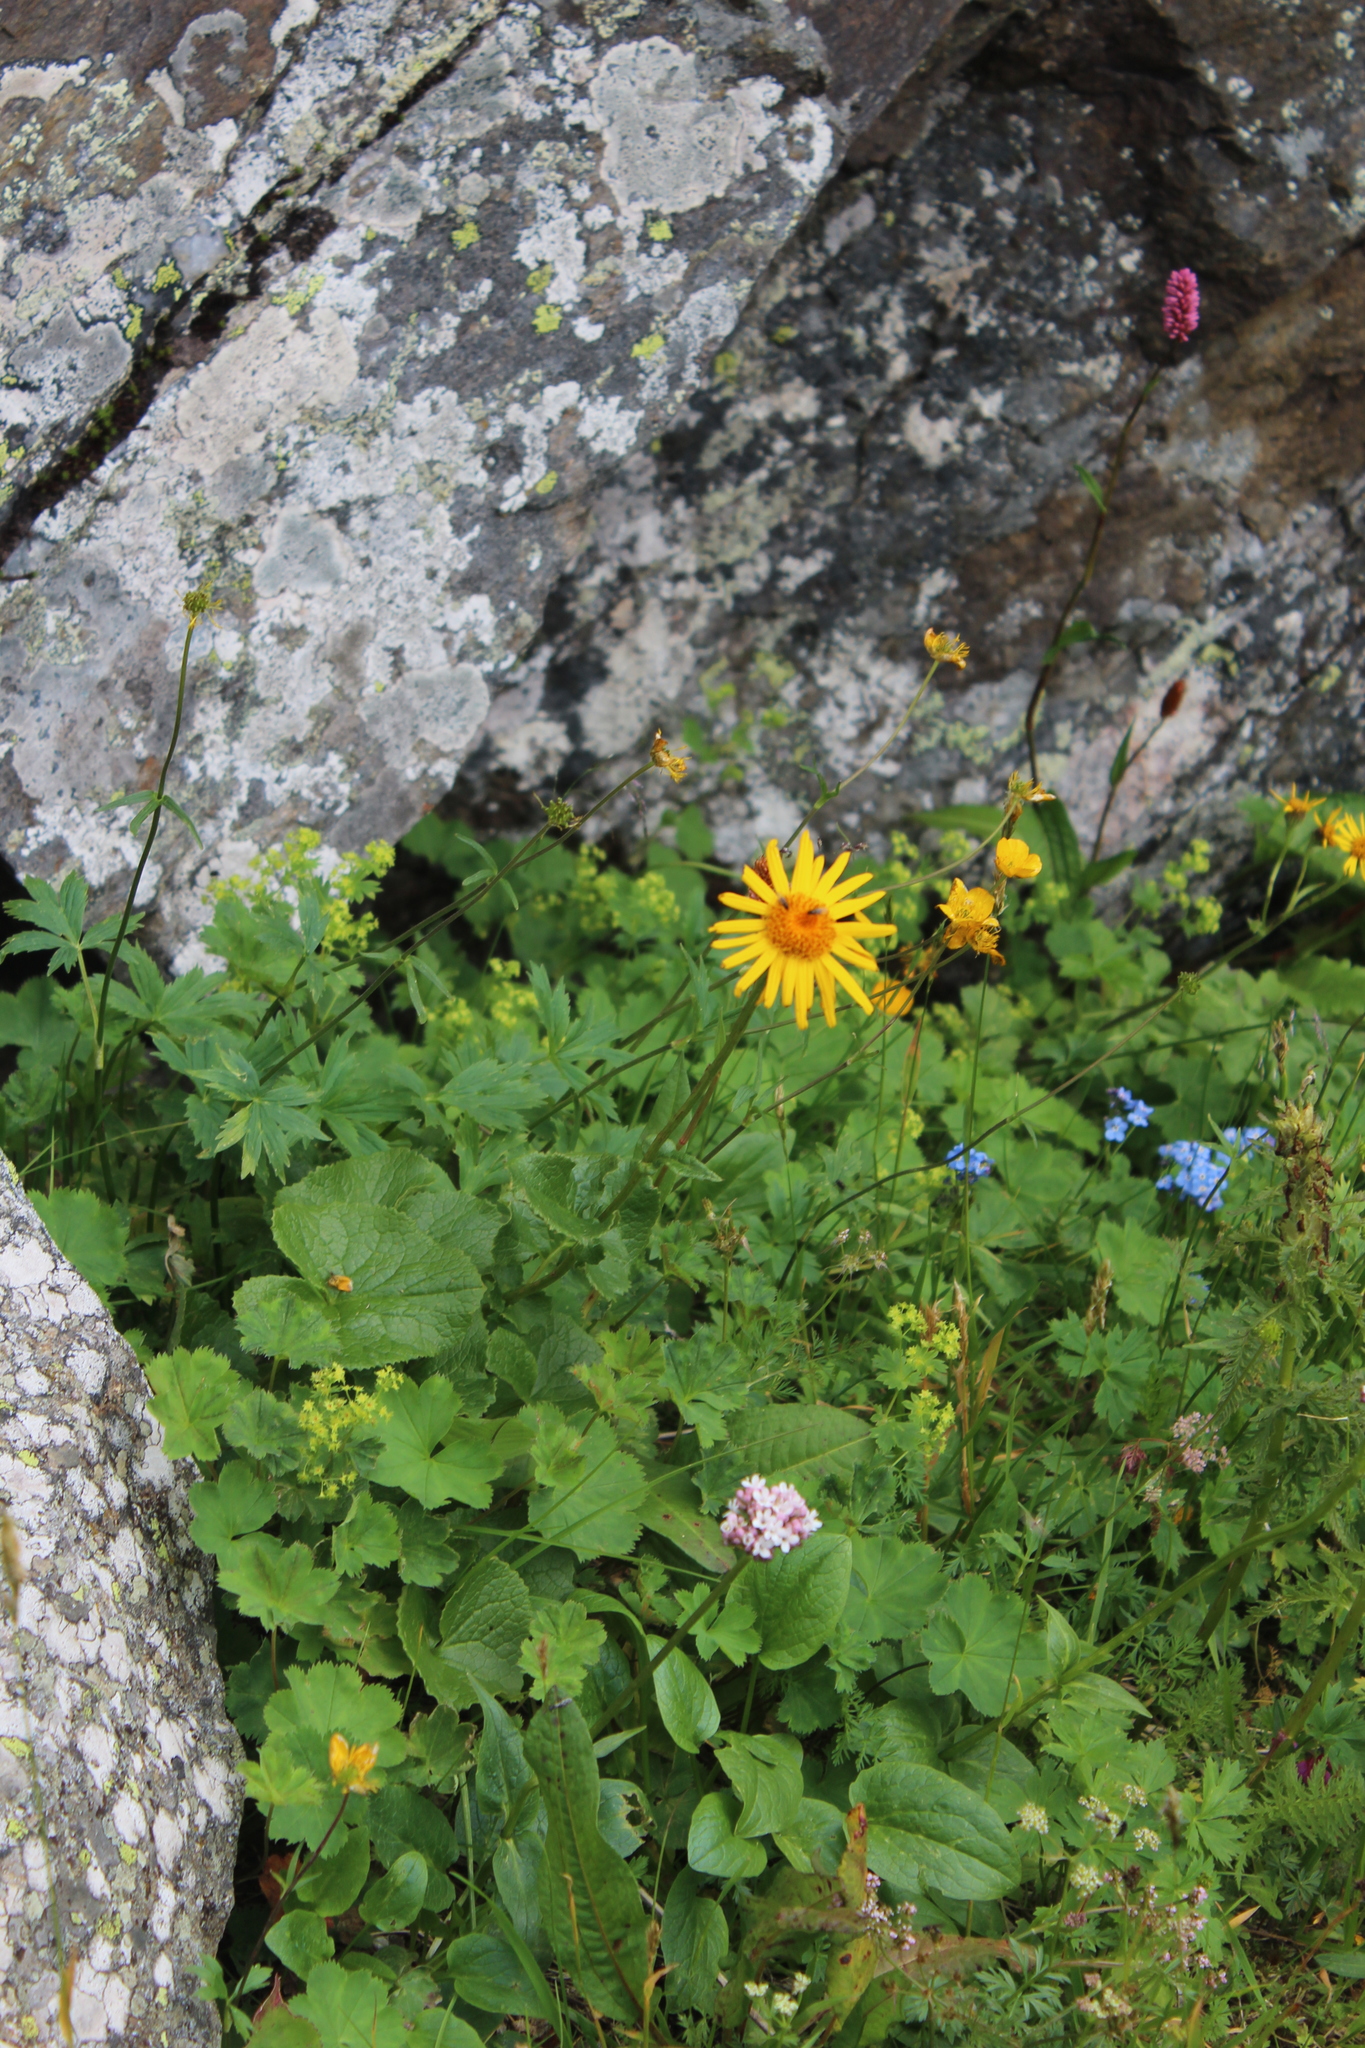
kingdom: Plantae
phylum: Tracheophyta
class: Magnoliopsida
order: Asterales
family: Asteraceae
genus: Dolichorrhiza
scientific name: Dolichorrhiza caucasica
